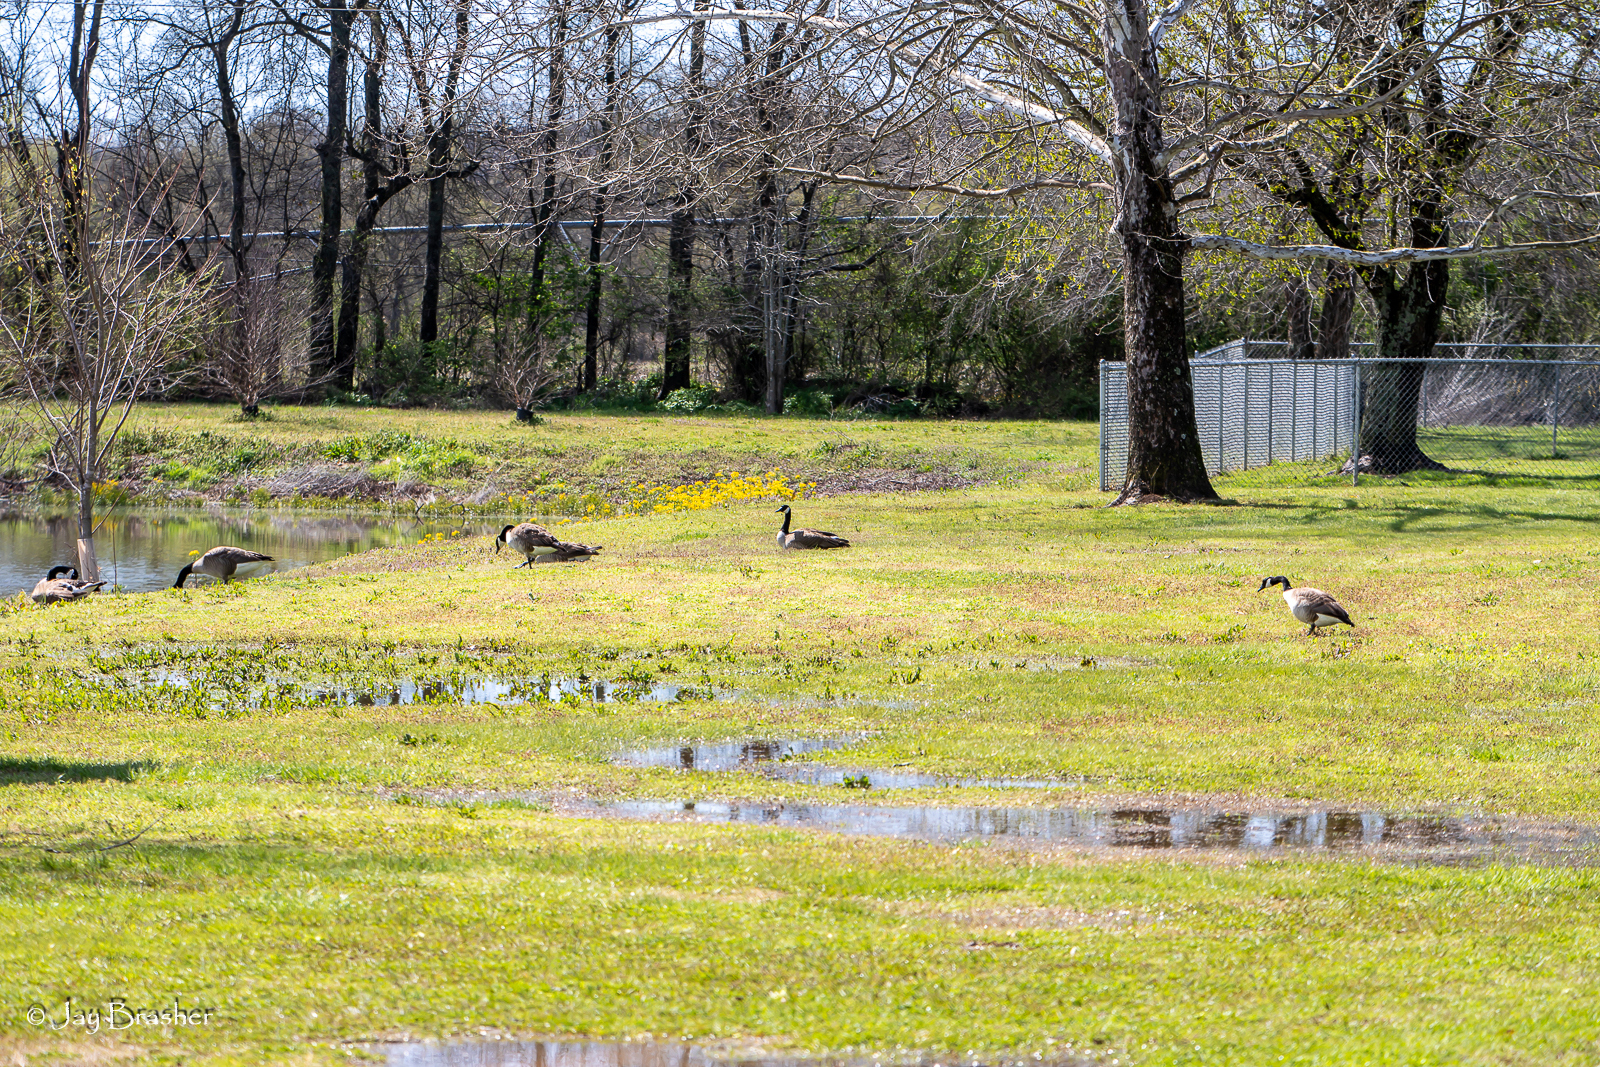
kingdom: Animalia
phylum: Chordata
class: Aves
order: Anseriformes
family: Anatidae
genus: Branta
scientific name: Branta canadensis
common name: Canada goose
